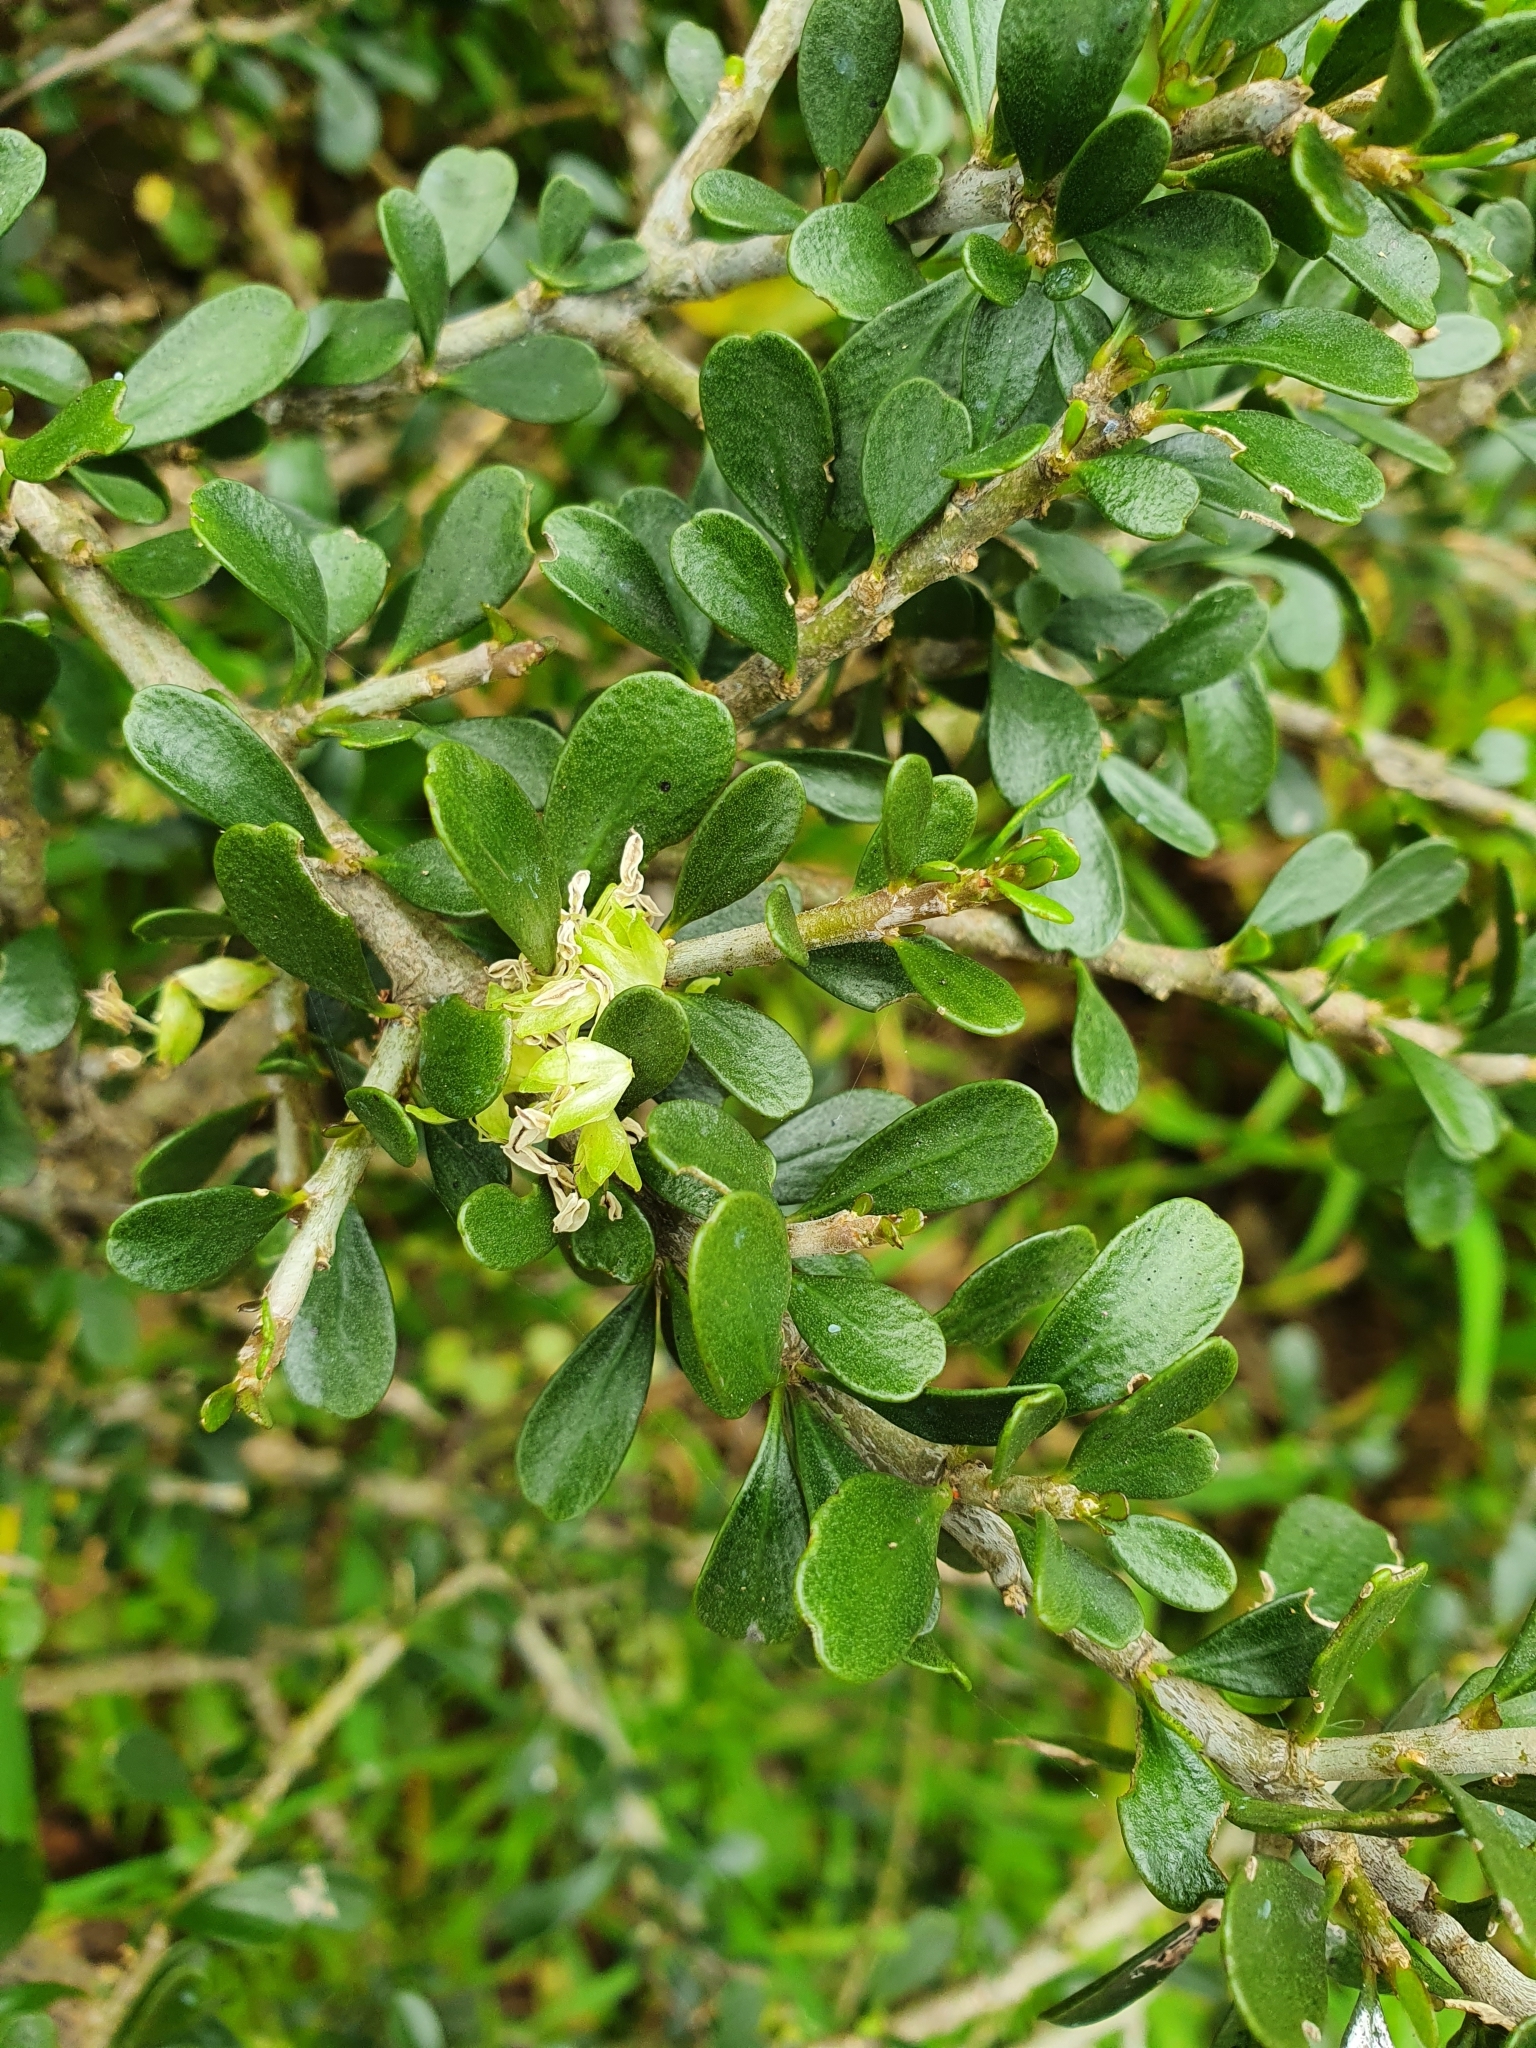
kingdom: Plantae
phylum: Tracheophyta
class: Magnoliopsida
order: Malpighiales
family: Violaceae
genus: Melicytus
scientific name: Melicytus crassifolius
